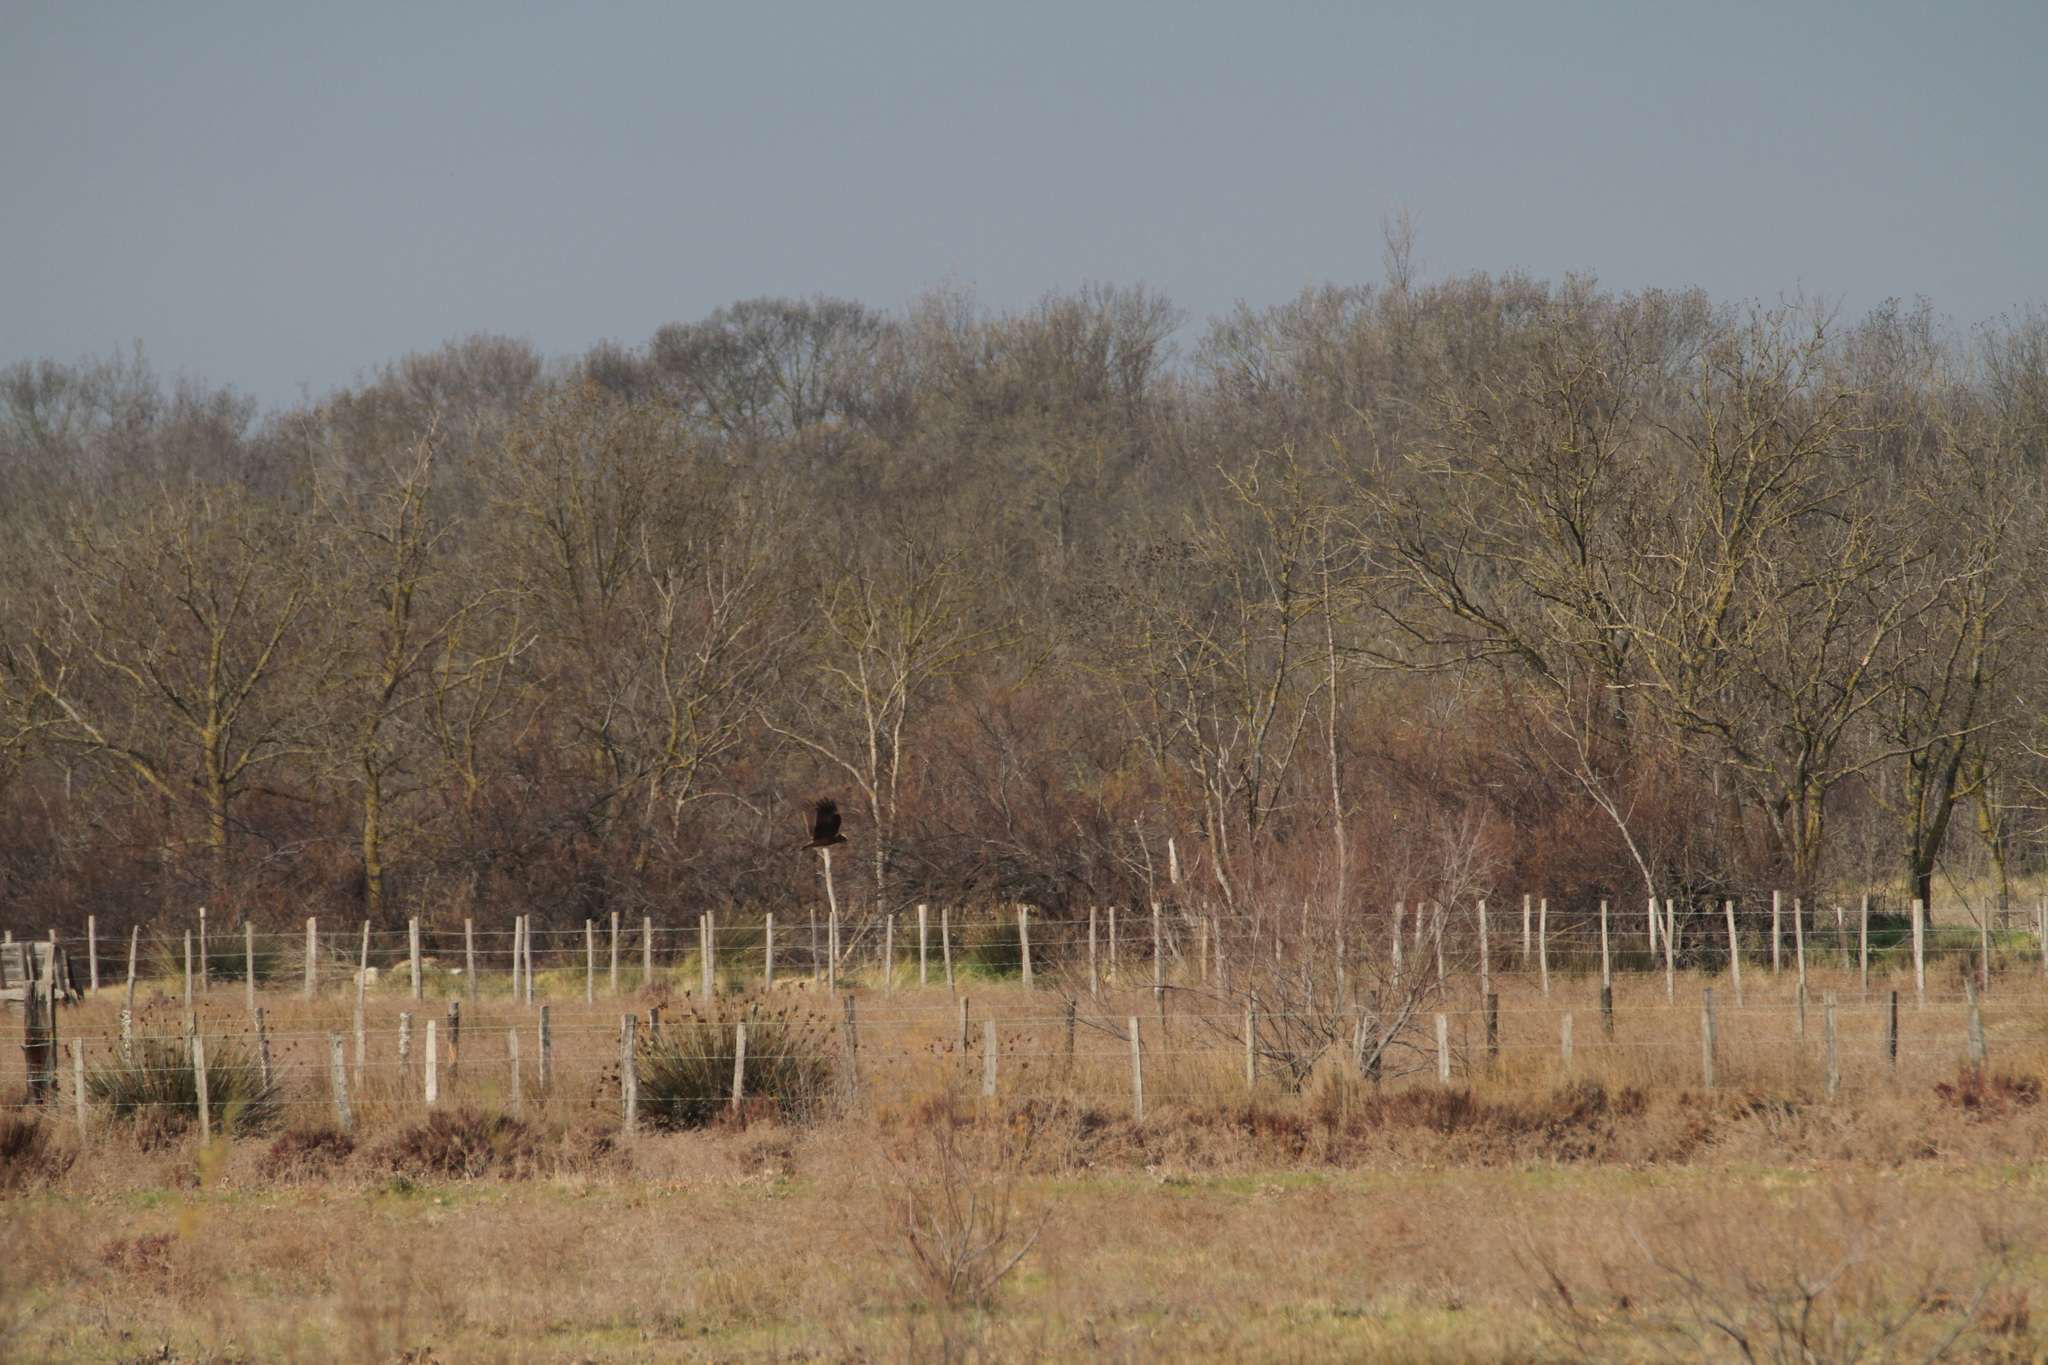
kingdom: Animalia
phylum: Chordata
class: Aves
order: Accipitriformes
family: Accipitridae
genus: Circus
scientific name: Circus aeruginosus
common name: Western marsh harrier
